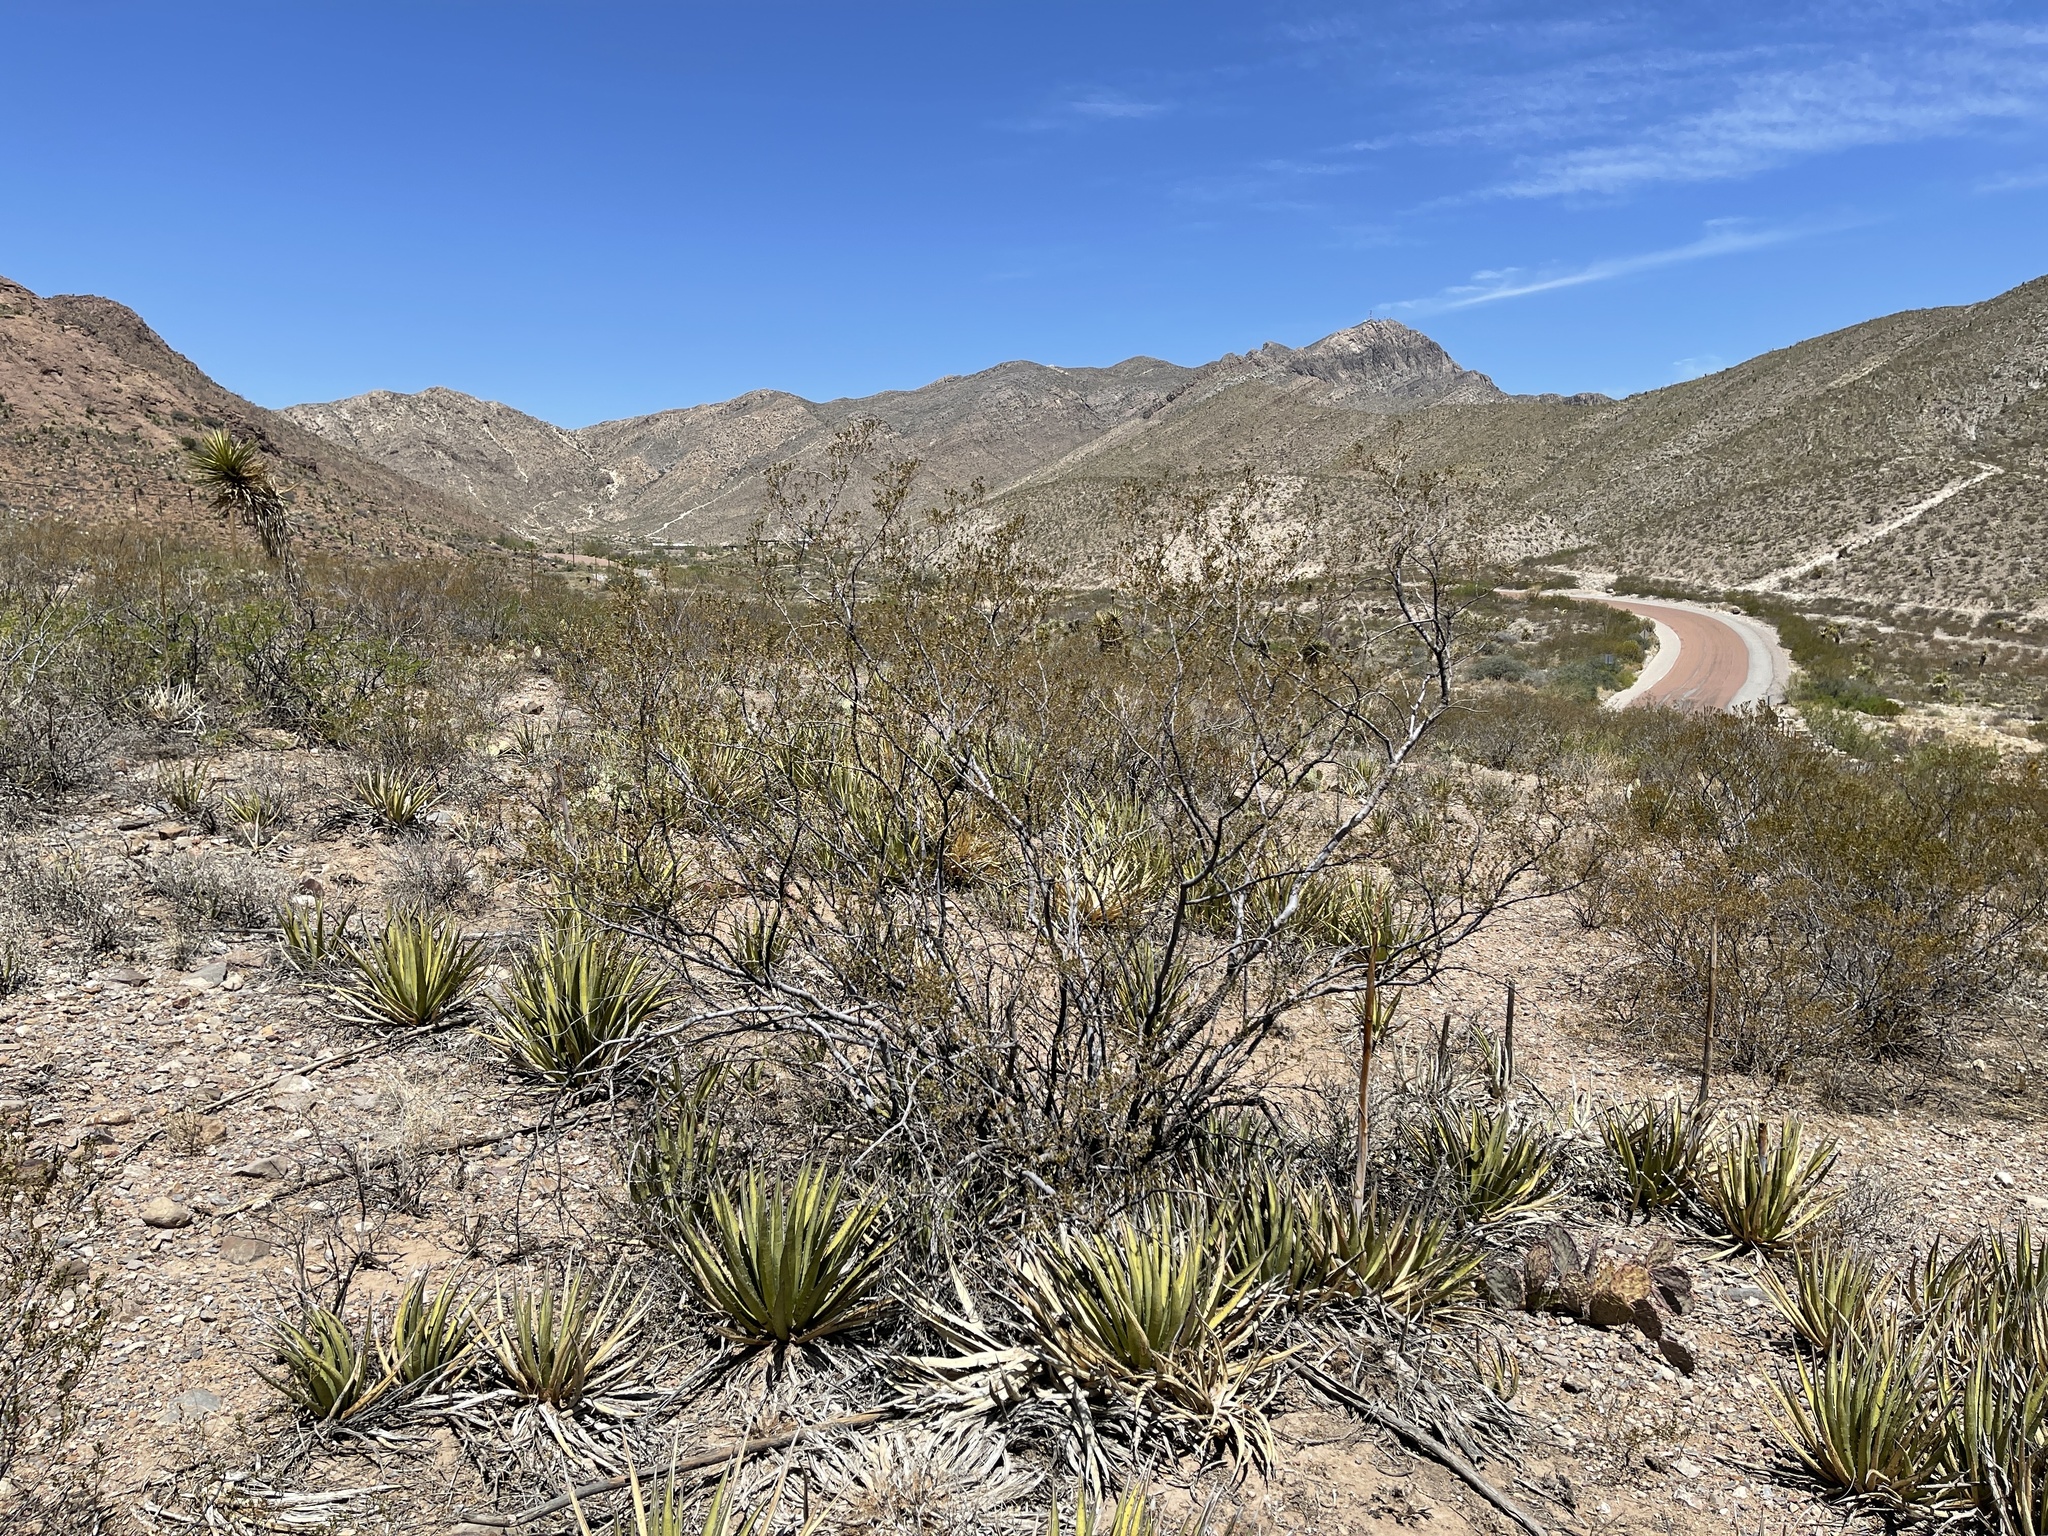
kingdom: Plantae
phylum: Tracheophyta
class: Magnoliopsida
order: Zygophyllales
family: Zygophyllaceae
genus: Larrea
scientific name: Larrea tridentata
